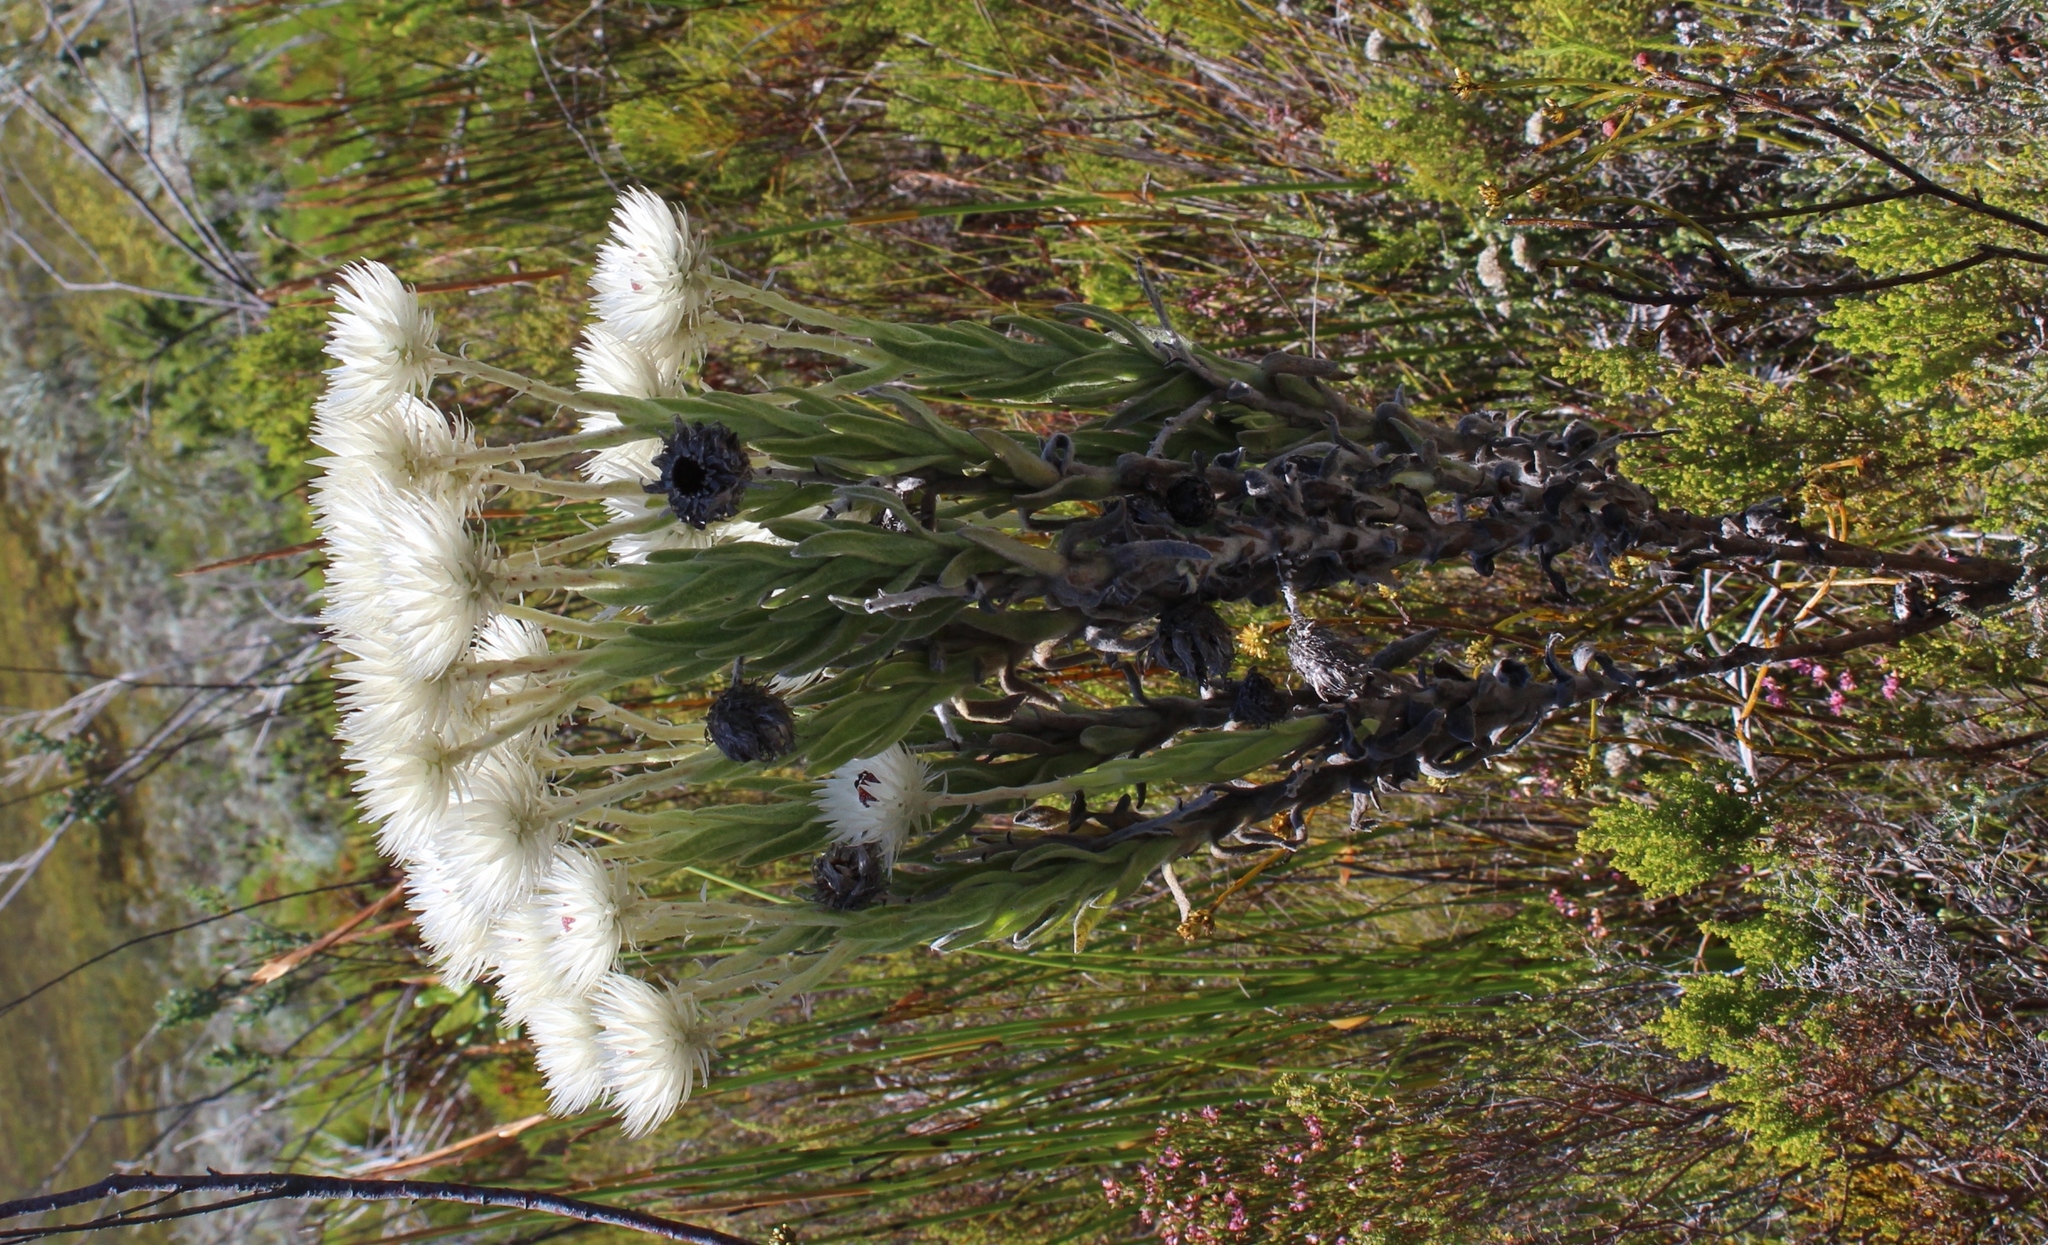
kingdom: Plantae
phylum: Tracheophyta
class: Magnoliopsida
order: Asterales
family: Asteraceae
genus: Syncarpha
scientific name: Syncarpha vestita
